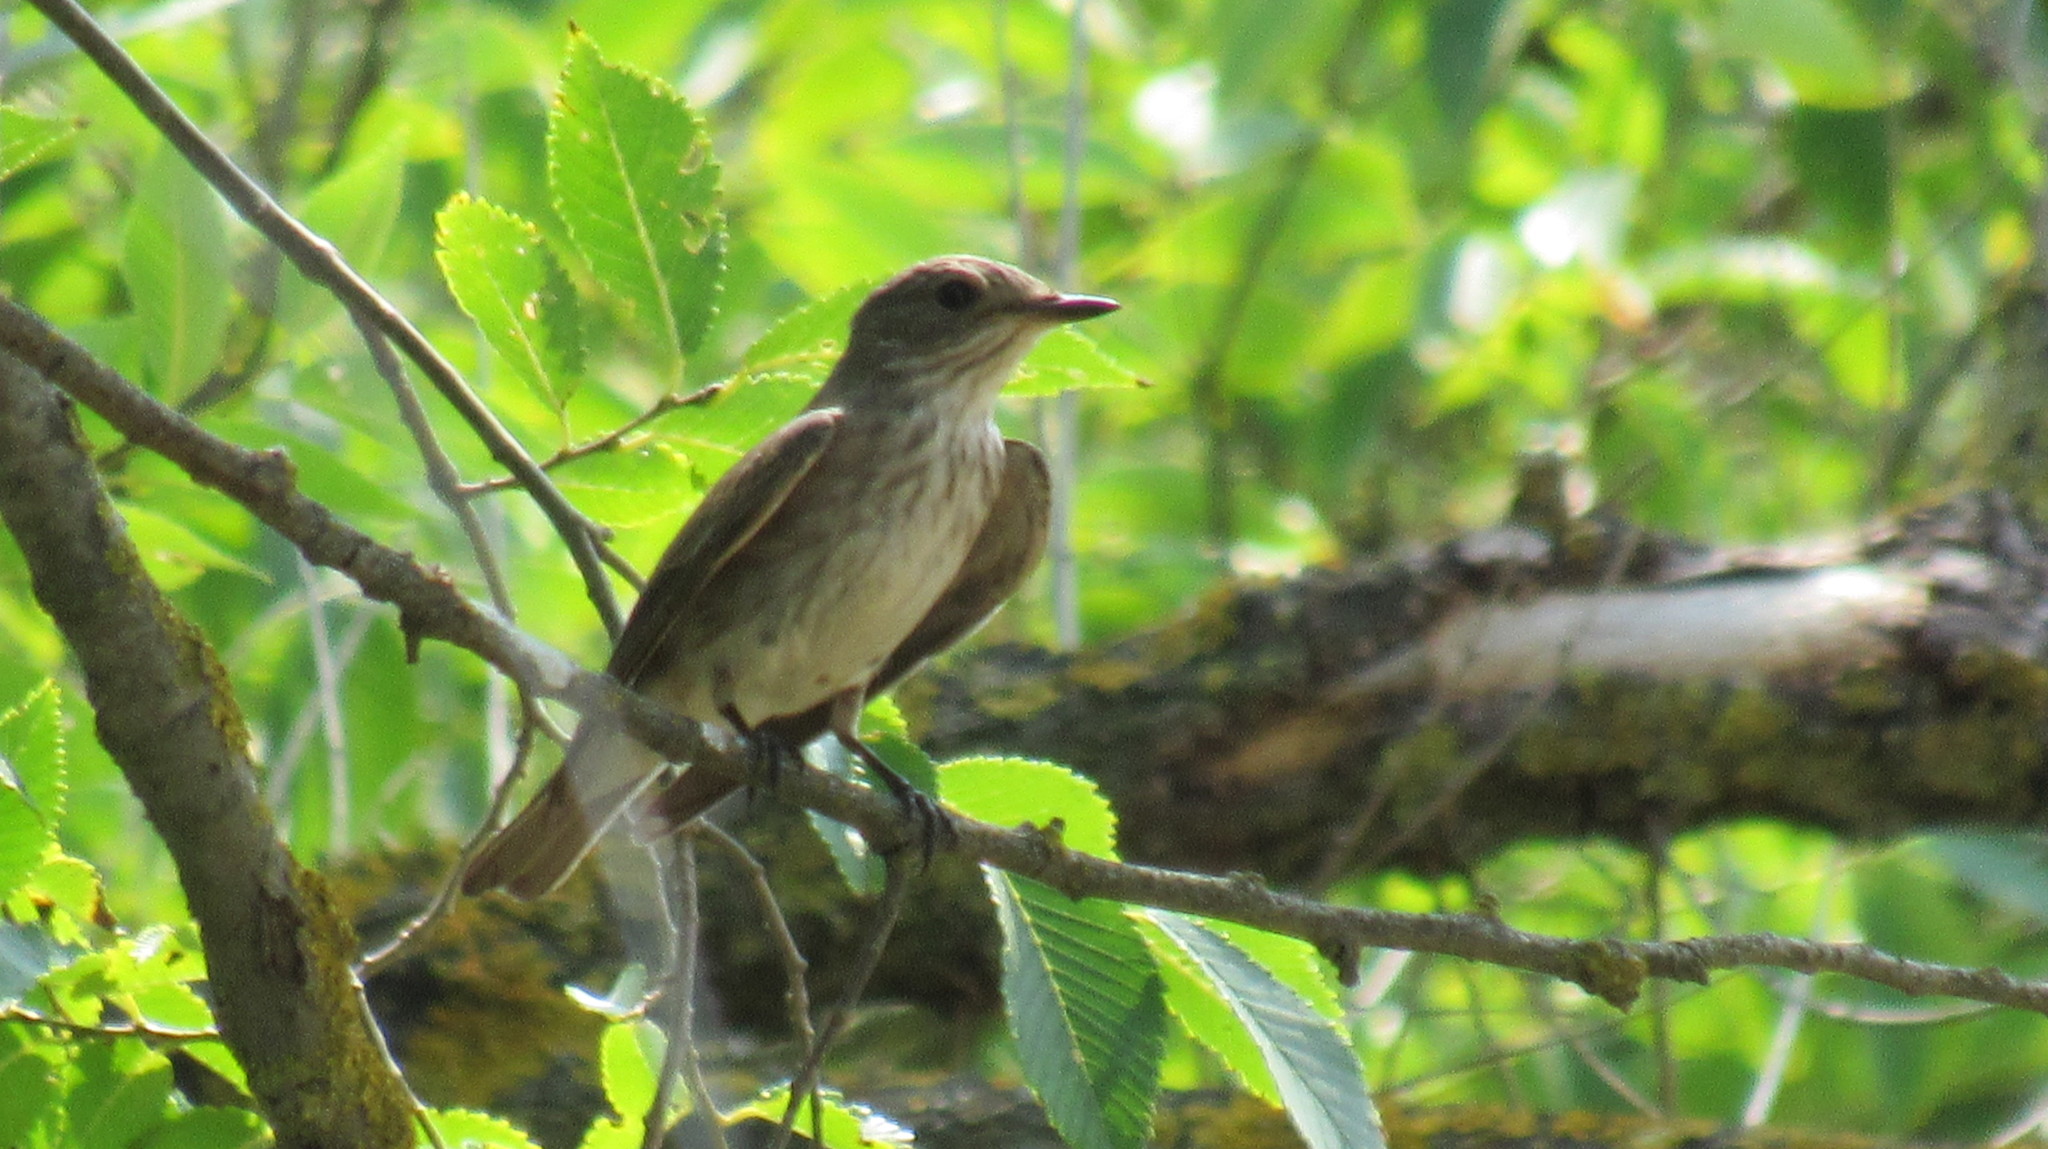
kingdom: Animalia
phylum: Chordata
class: Aves
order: Passeriformes
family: Muscicapidae
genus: Muscicapa
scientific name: Muscicapa striata
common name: Spotted flycatcher
